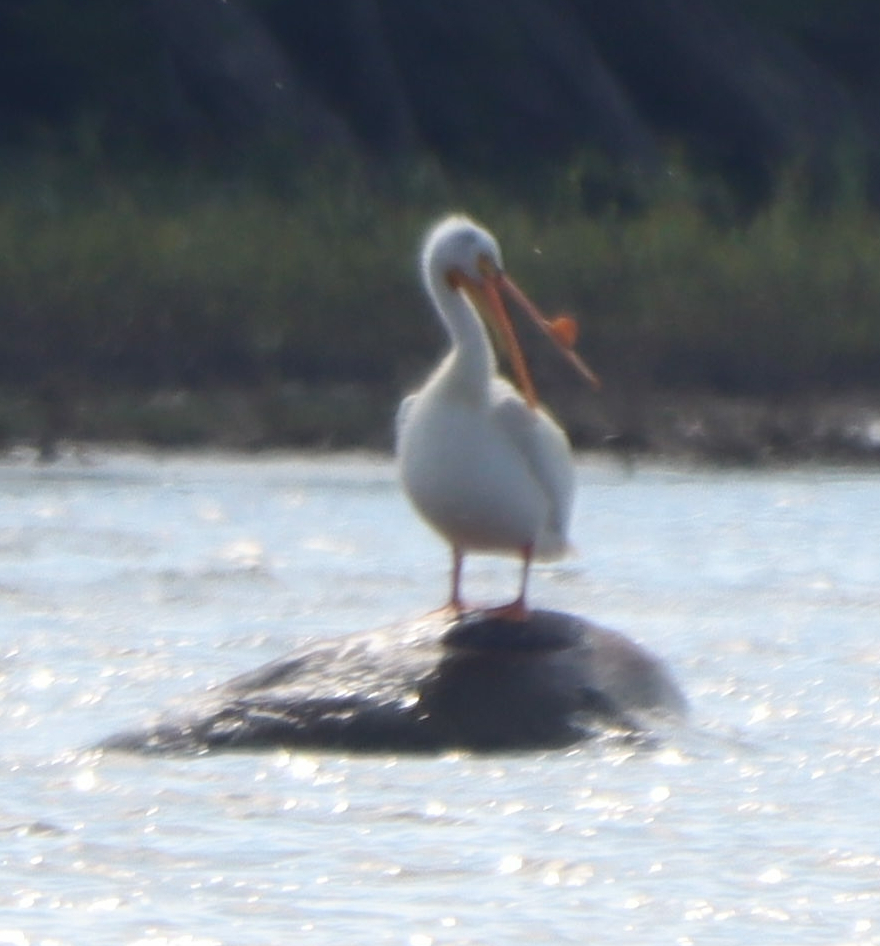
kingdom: Animalia
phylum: Chordata
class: Aves
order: Pelecaniformes
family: Pelecanidae
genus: Pelecanus
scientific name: Pelecanus erythrorhynchos
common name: American white pelican
